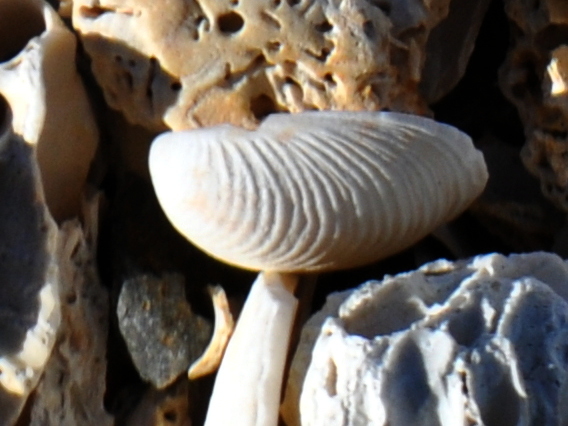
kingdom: Animalia
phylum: Mollusca
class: Bivalvia
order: Venerida
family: Veneridae
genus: Tawera
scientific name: Tawera spissa
